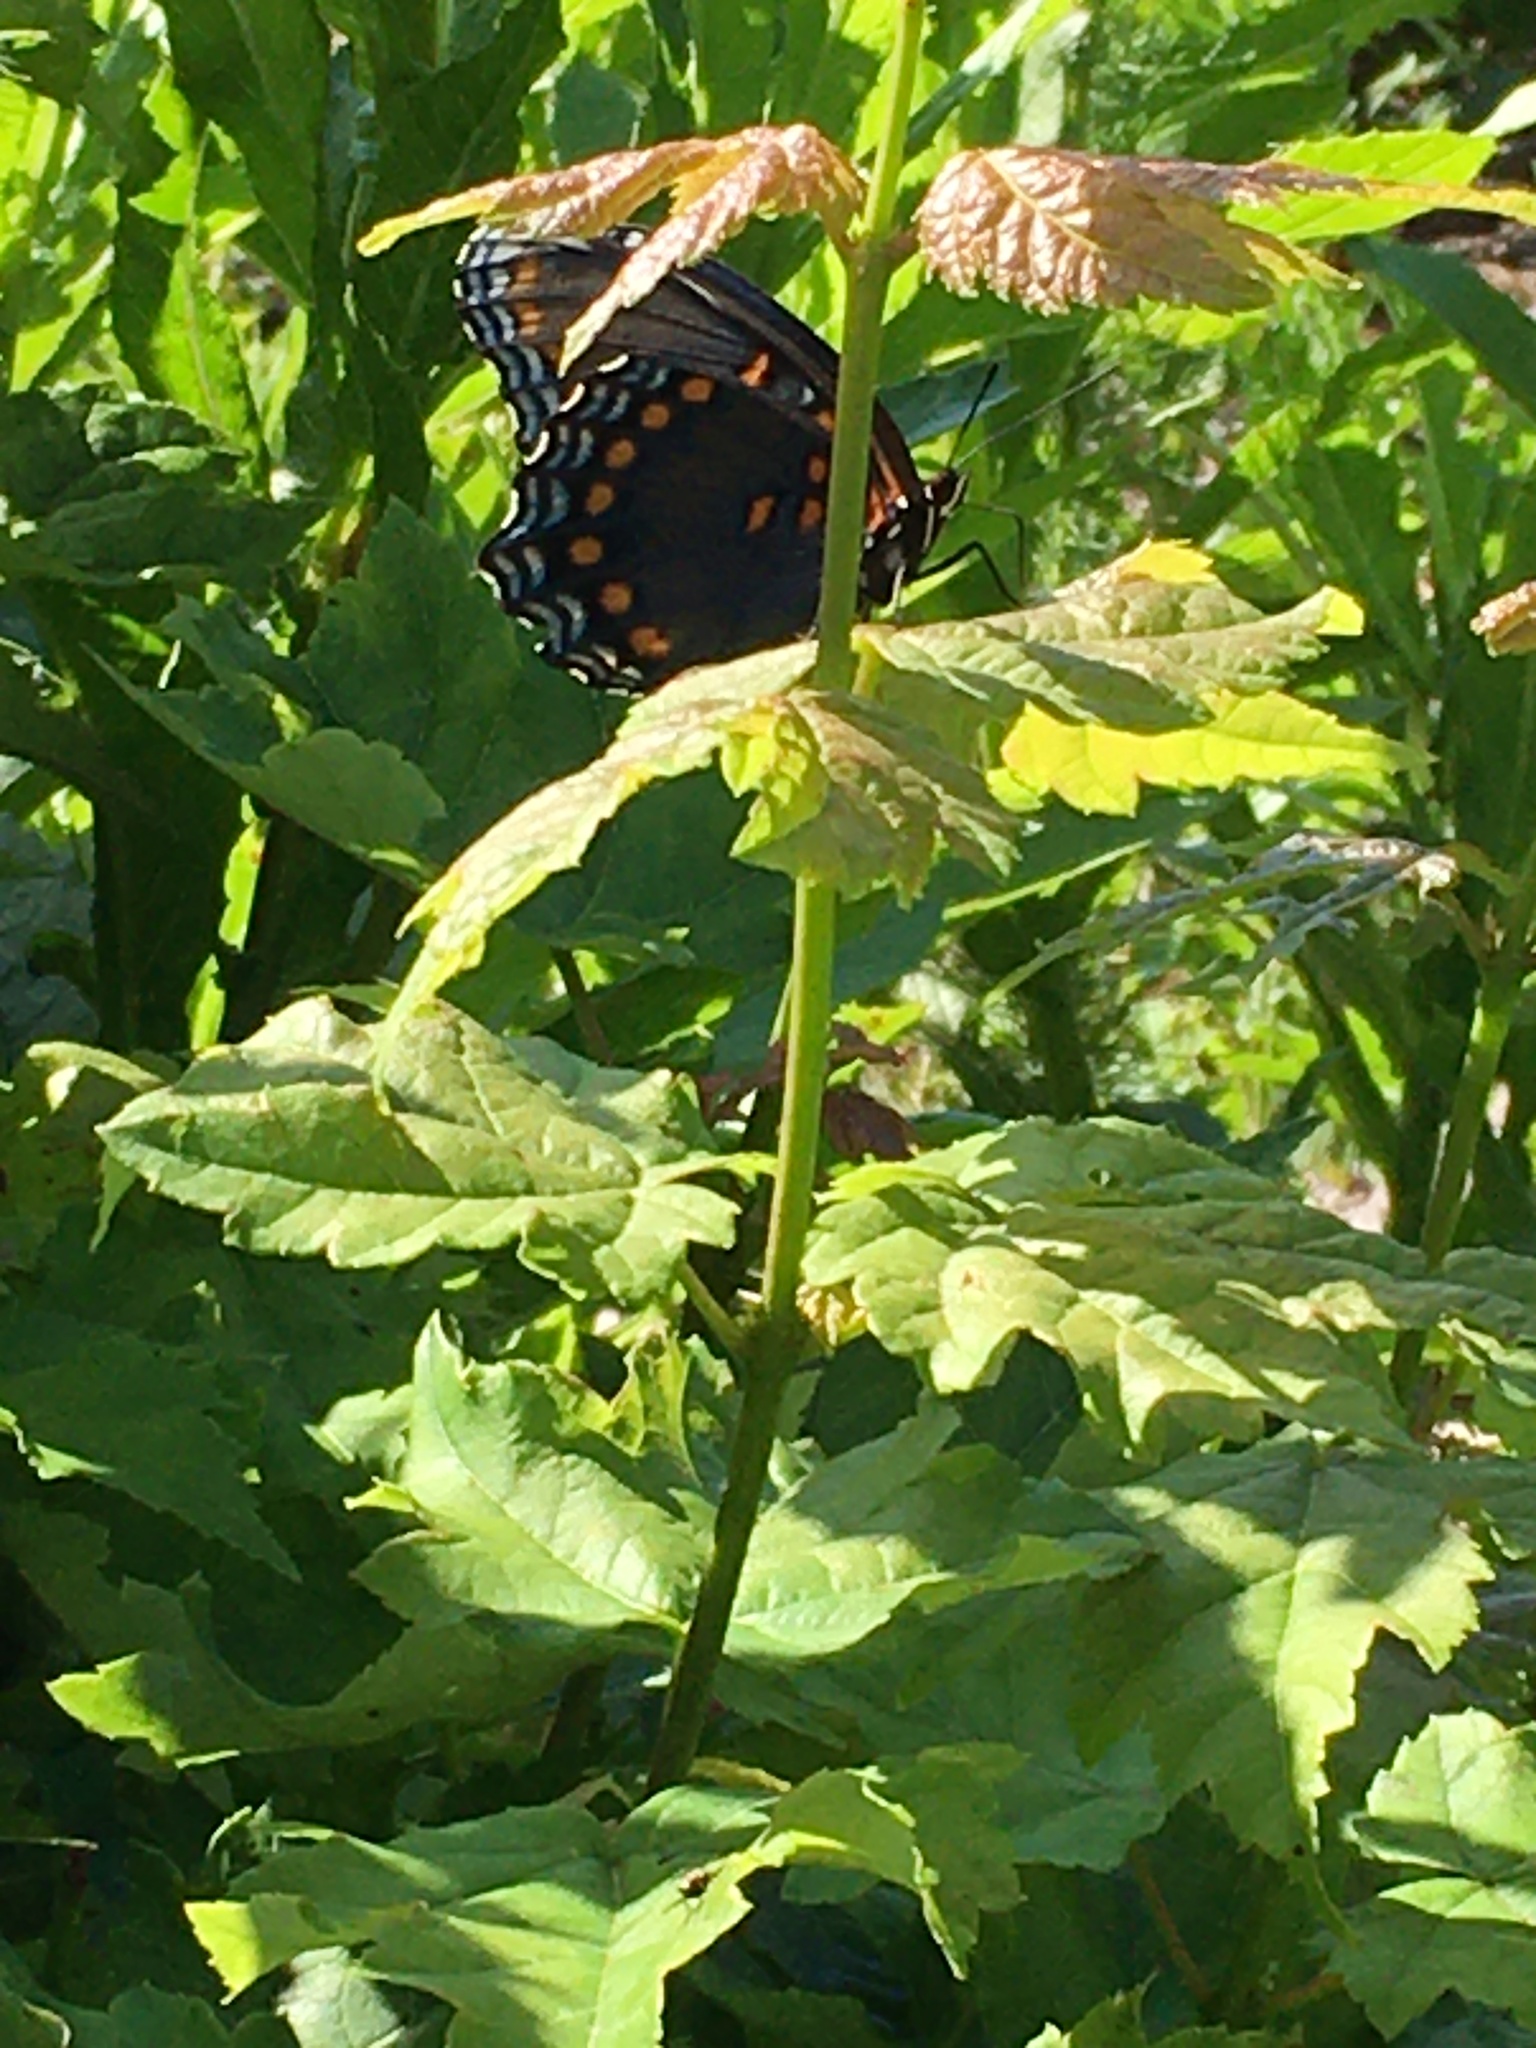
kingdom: Animalia
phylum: Arthropoda
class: Insecta
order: Lepidoptera
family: Nymphalidae
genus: Limenitis
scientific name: Limenitis astyanax
